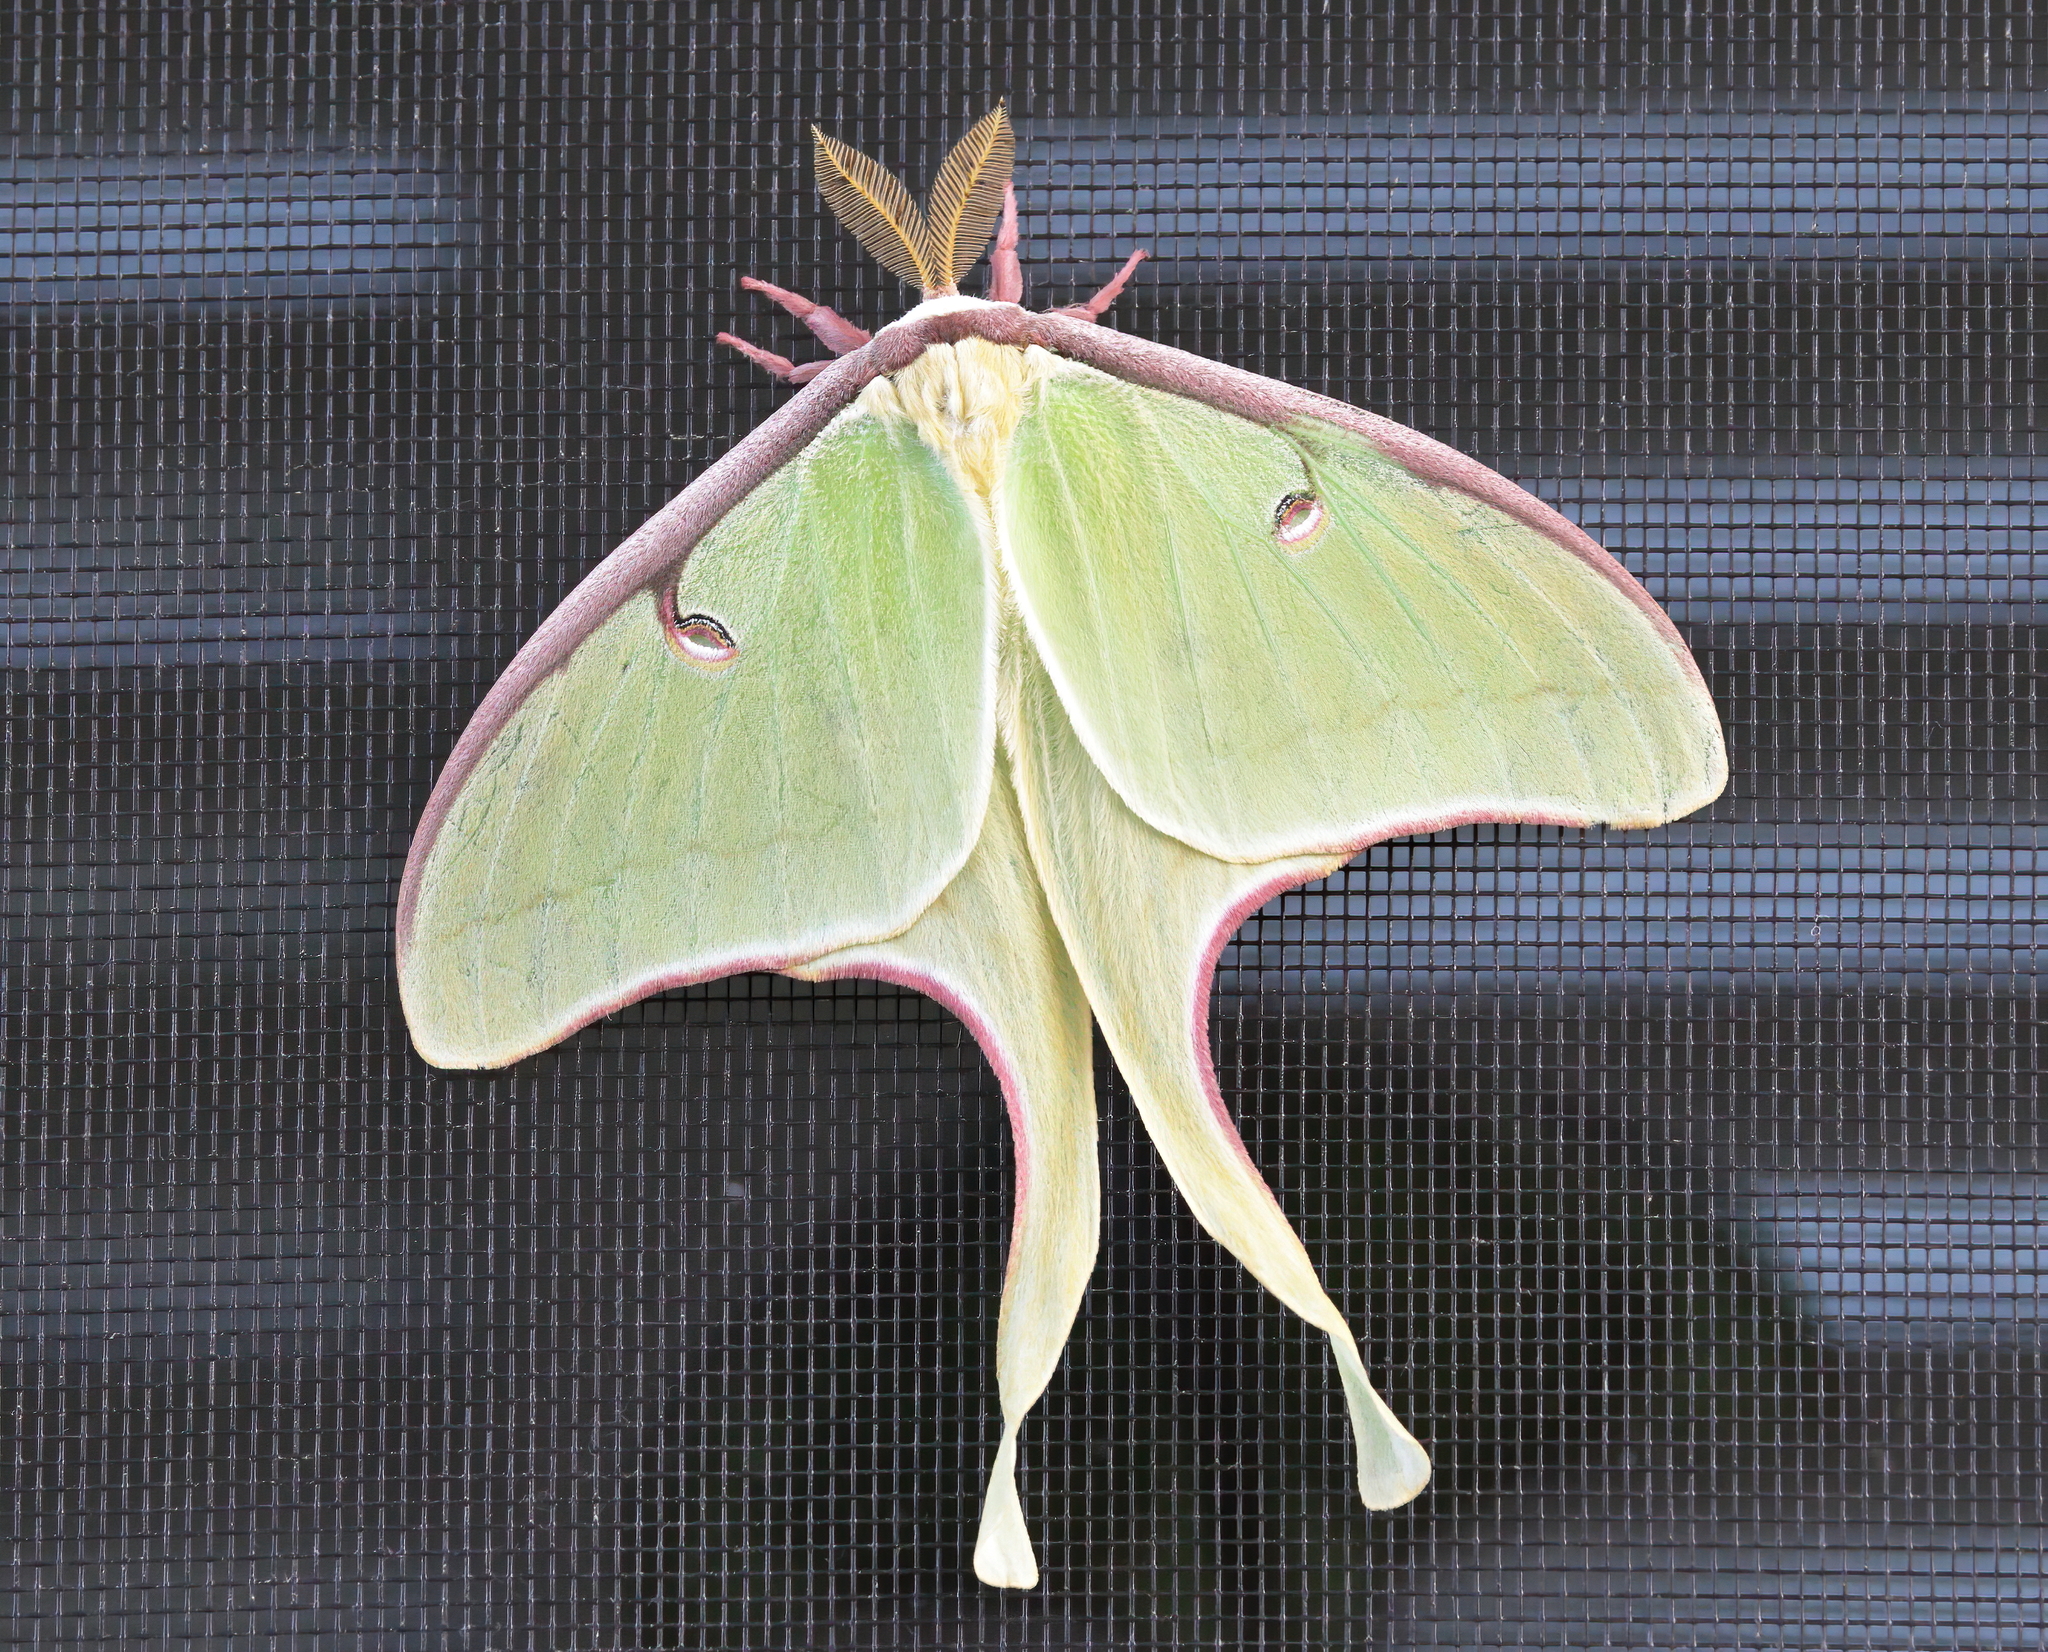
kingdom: Animalia
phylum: Arthropoda
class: Insecta
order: Lepidoptera
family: Saturniidae
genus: Actias
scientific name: Actias luna
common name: Luna moth
